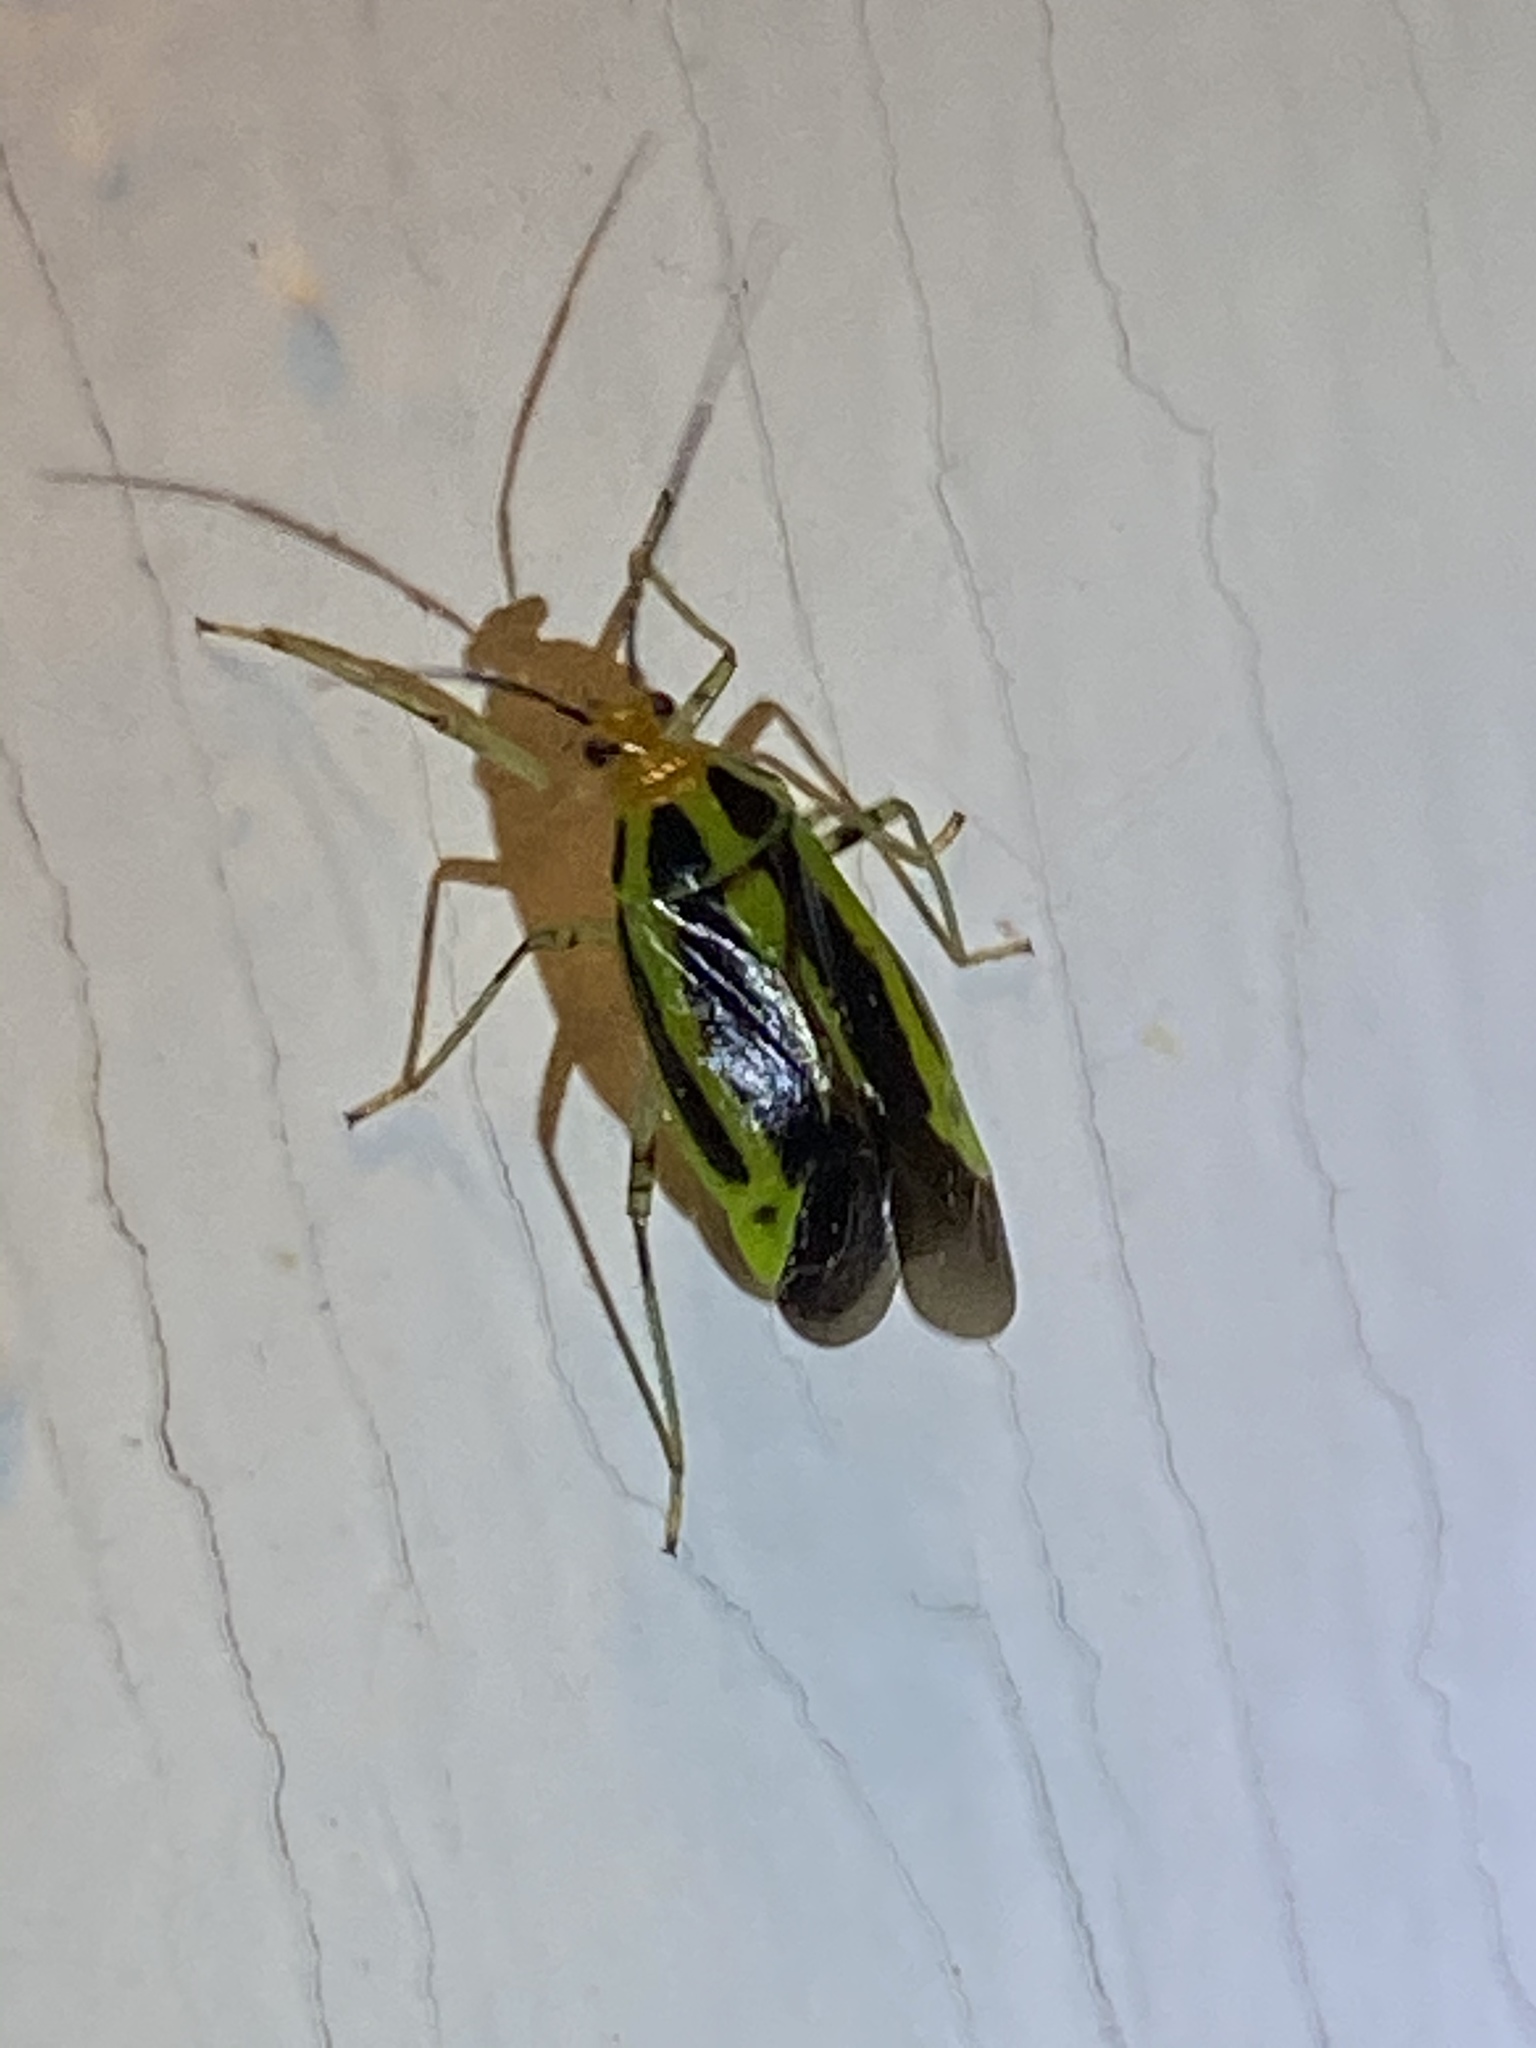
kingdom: Animalia
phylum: Arthropoda
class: Insecta
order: Hemiptera
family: Miridae
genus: Poecilocapsus
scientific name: Poecilocapsus lineatus
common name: Four-lined plant bug
